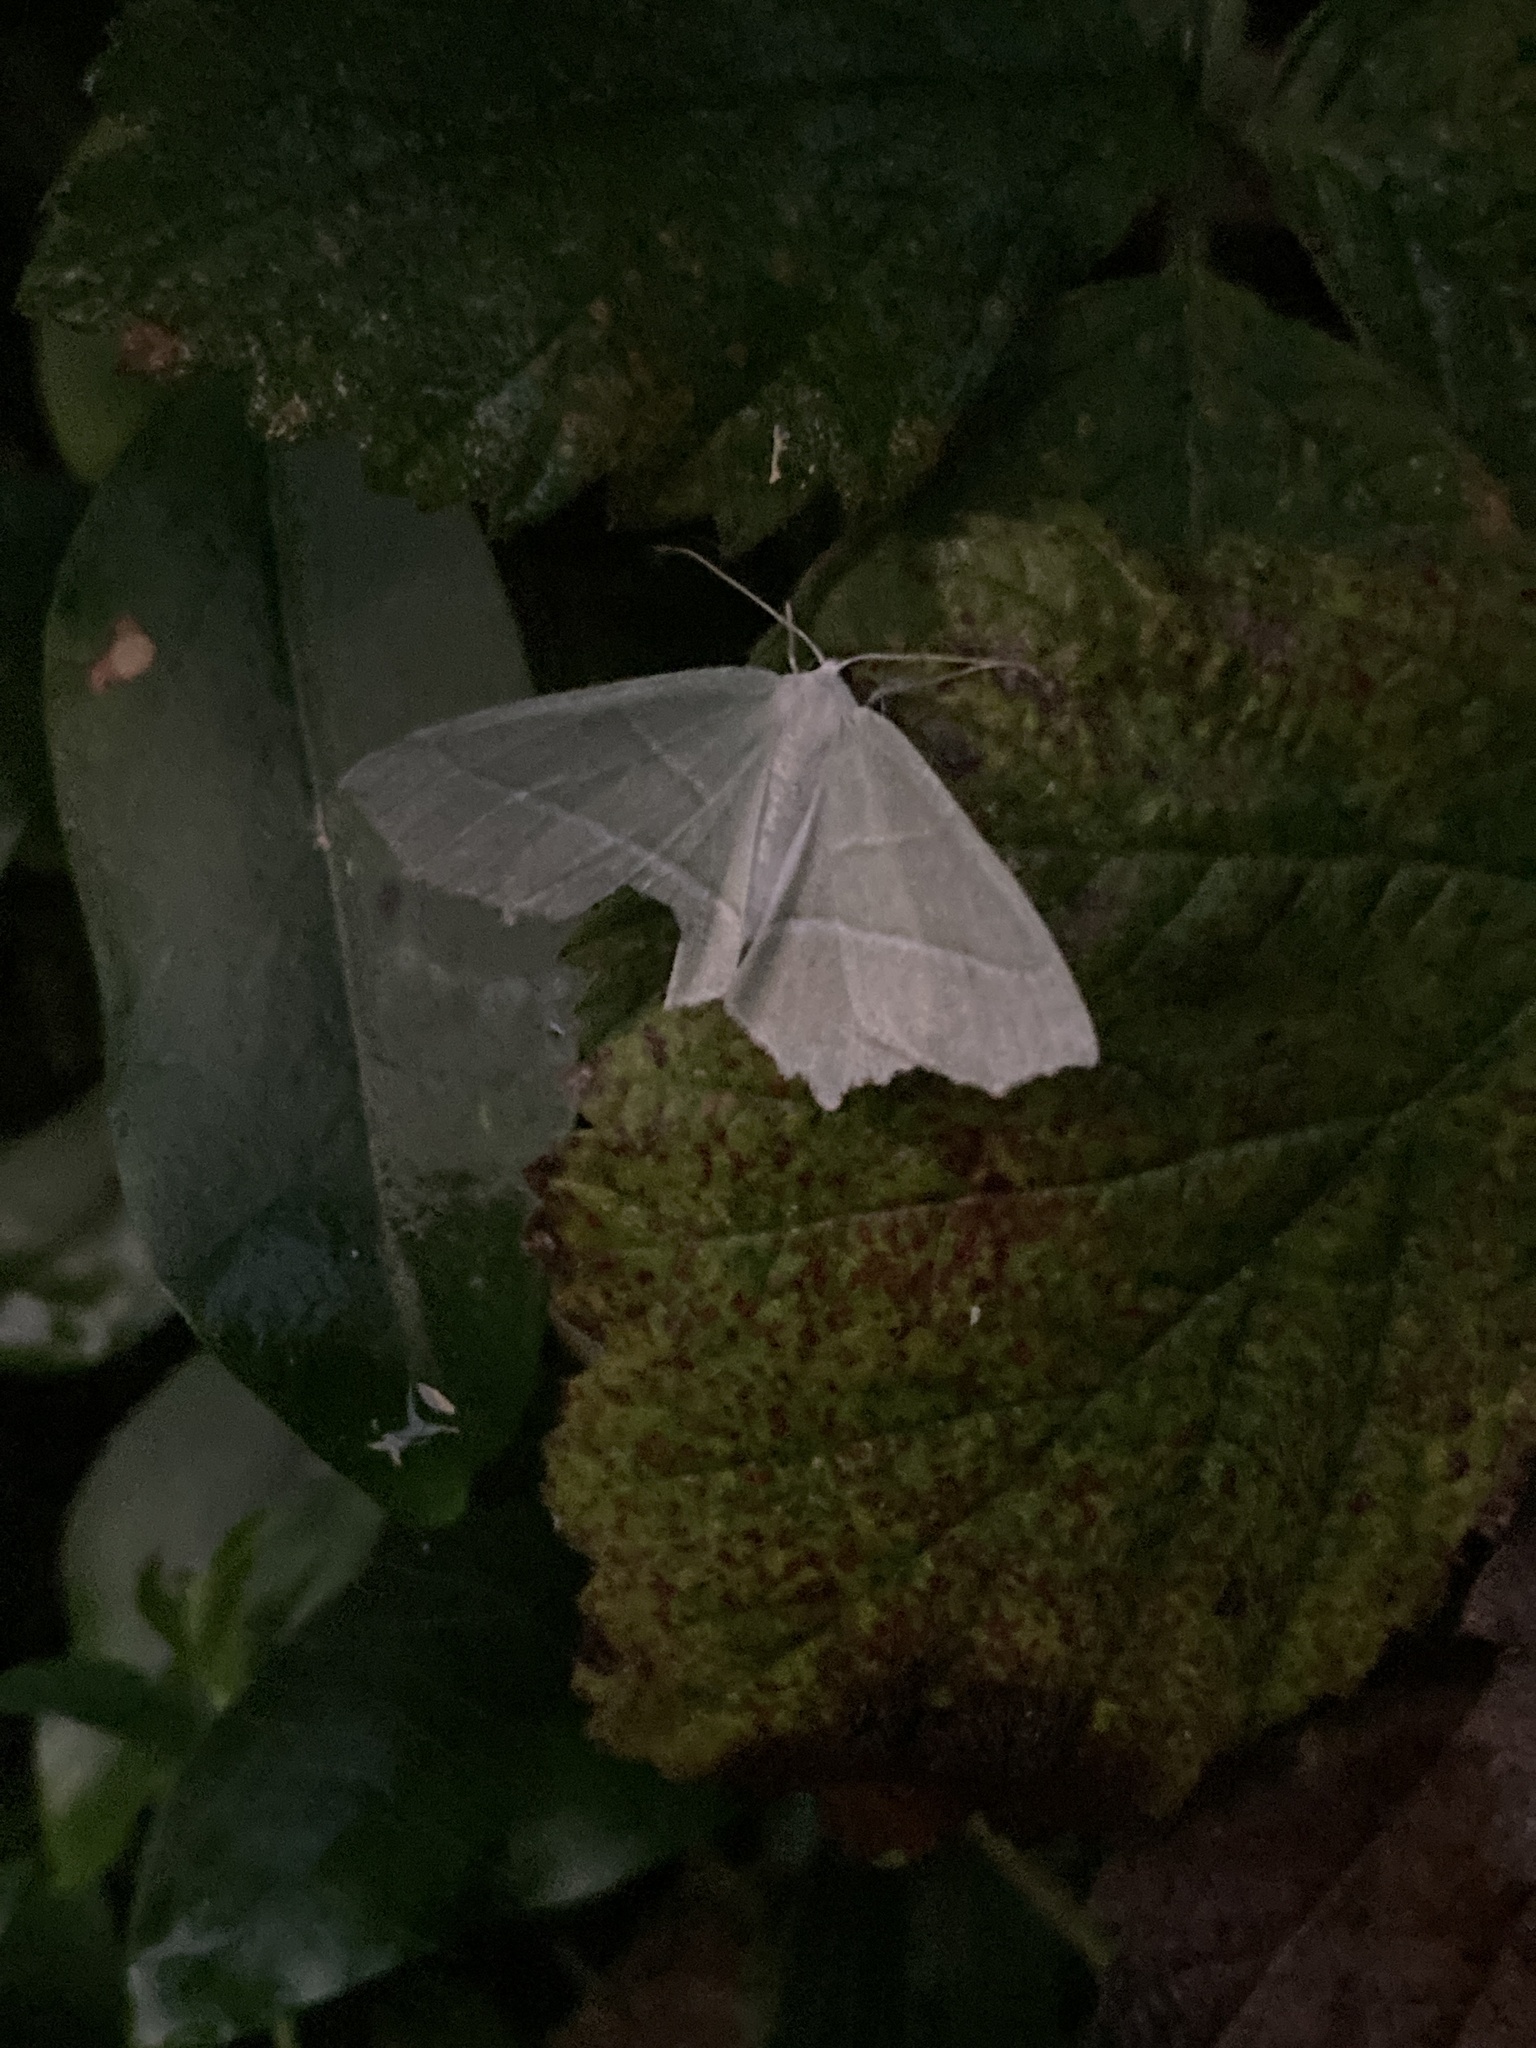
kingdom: Animalia
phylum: Arthropoda
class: Insecta
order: Lepidoptera
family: Geometridae
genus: Campaea
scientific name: Campaea margaritaria
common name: Light emerald
